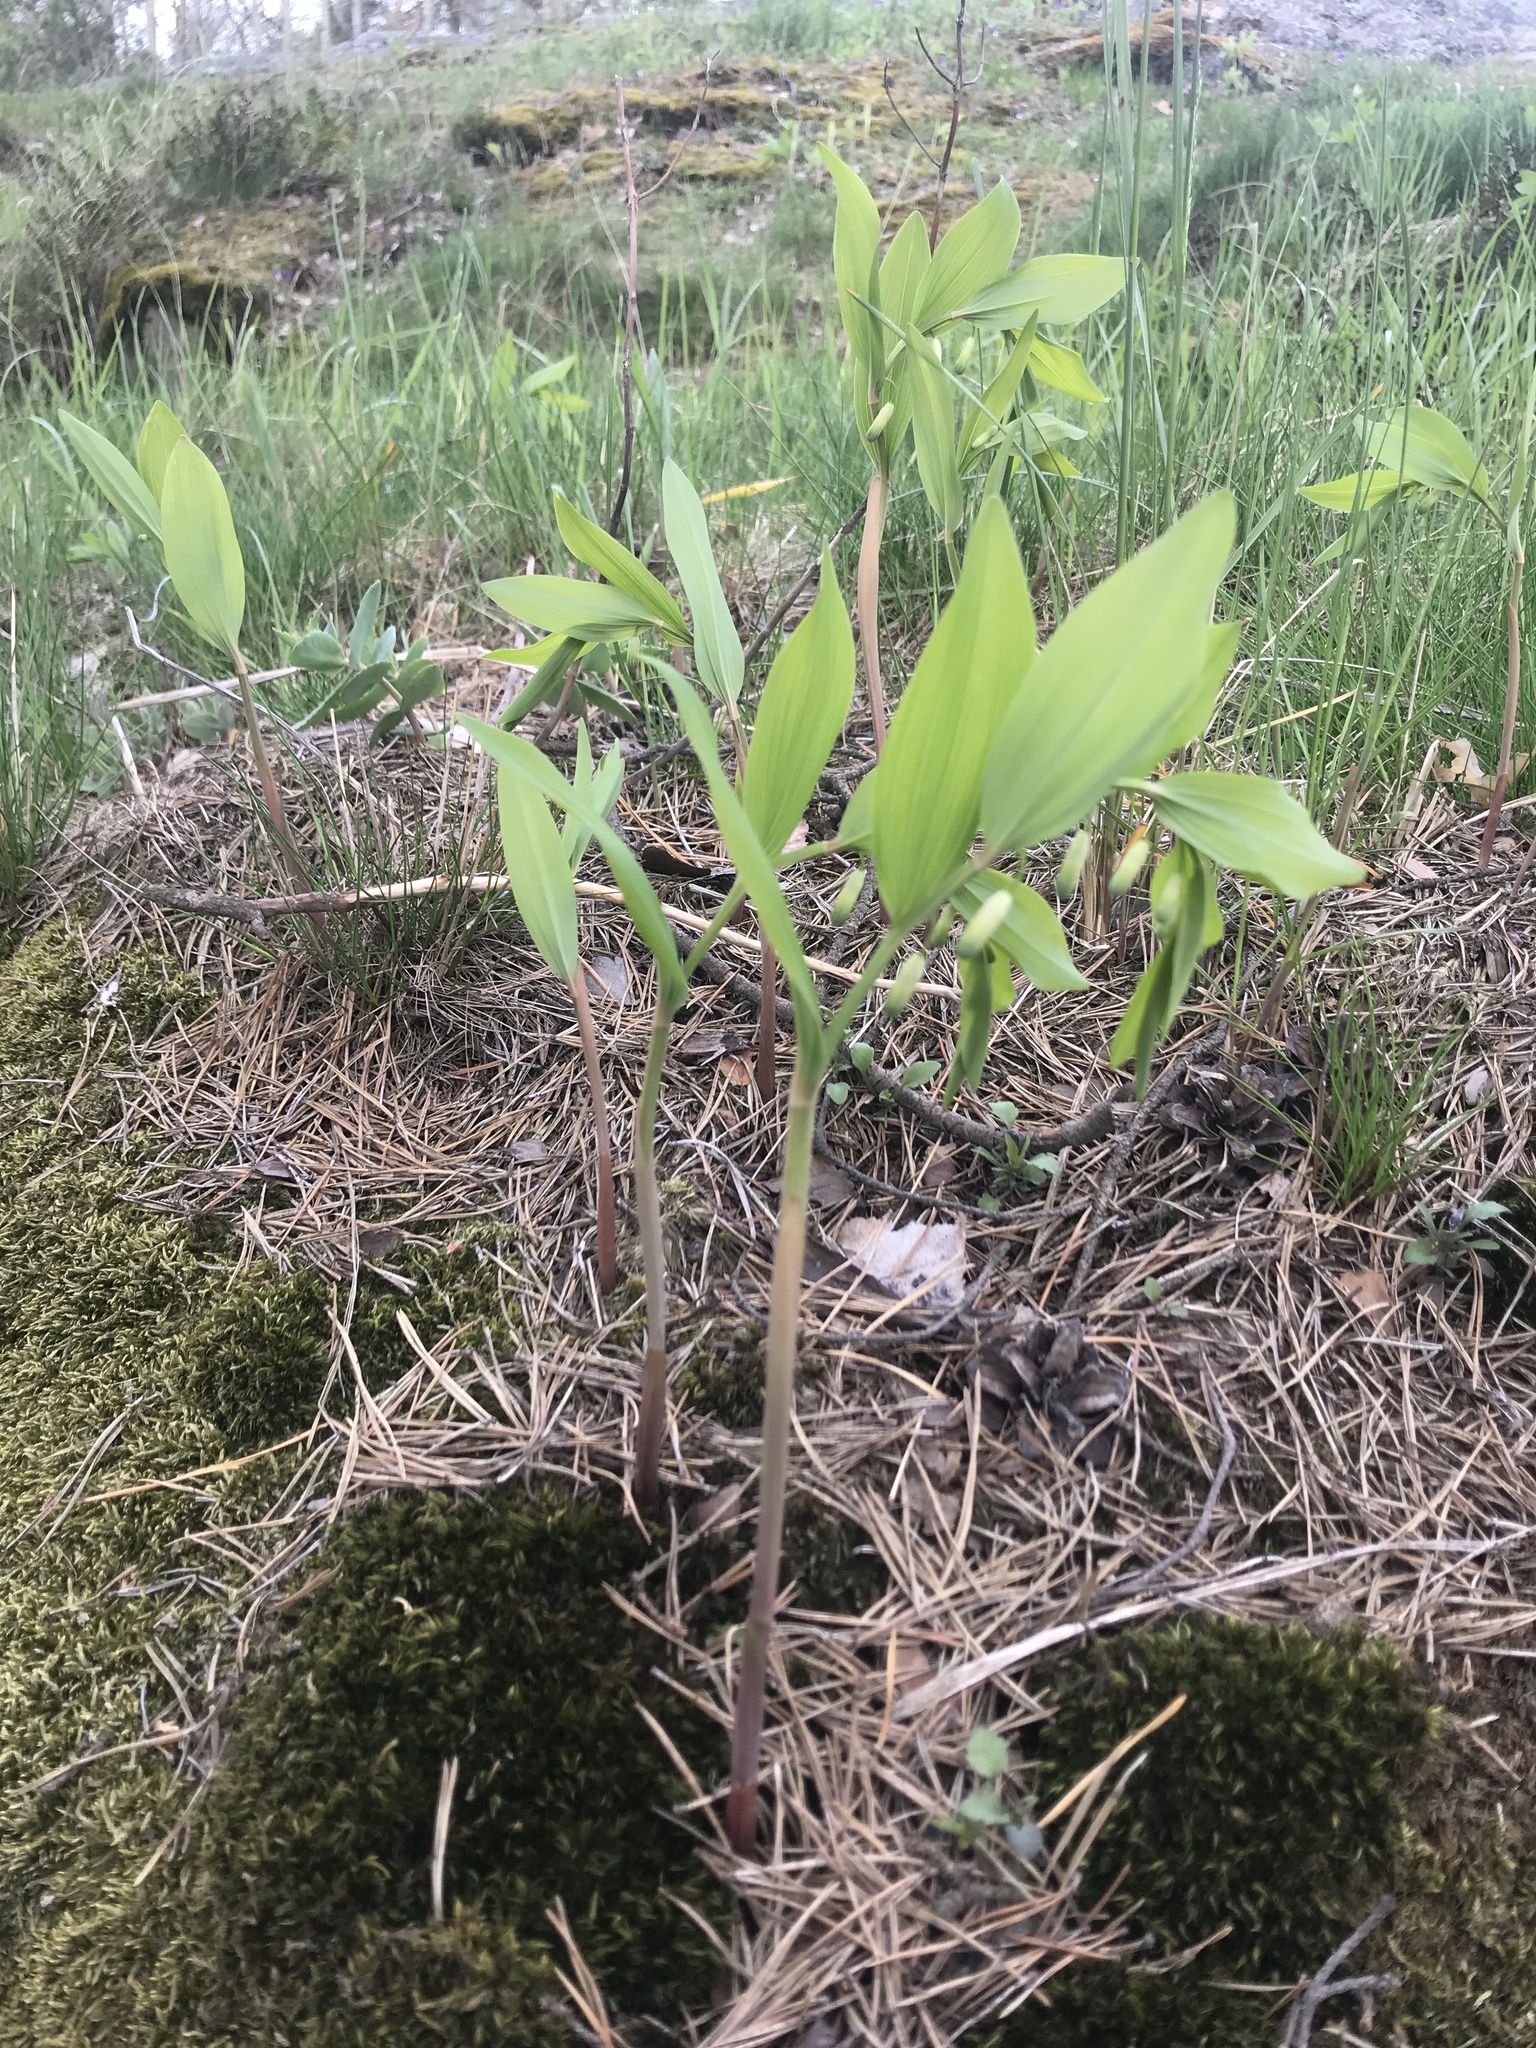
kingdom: Plantae
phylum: Tracheophyta
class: Liliopsida
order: Asparagales
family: Asparagaceae
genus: Polygonatum
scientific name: Polygonatum odoratum
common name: Angular solomon's-seal
